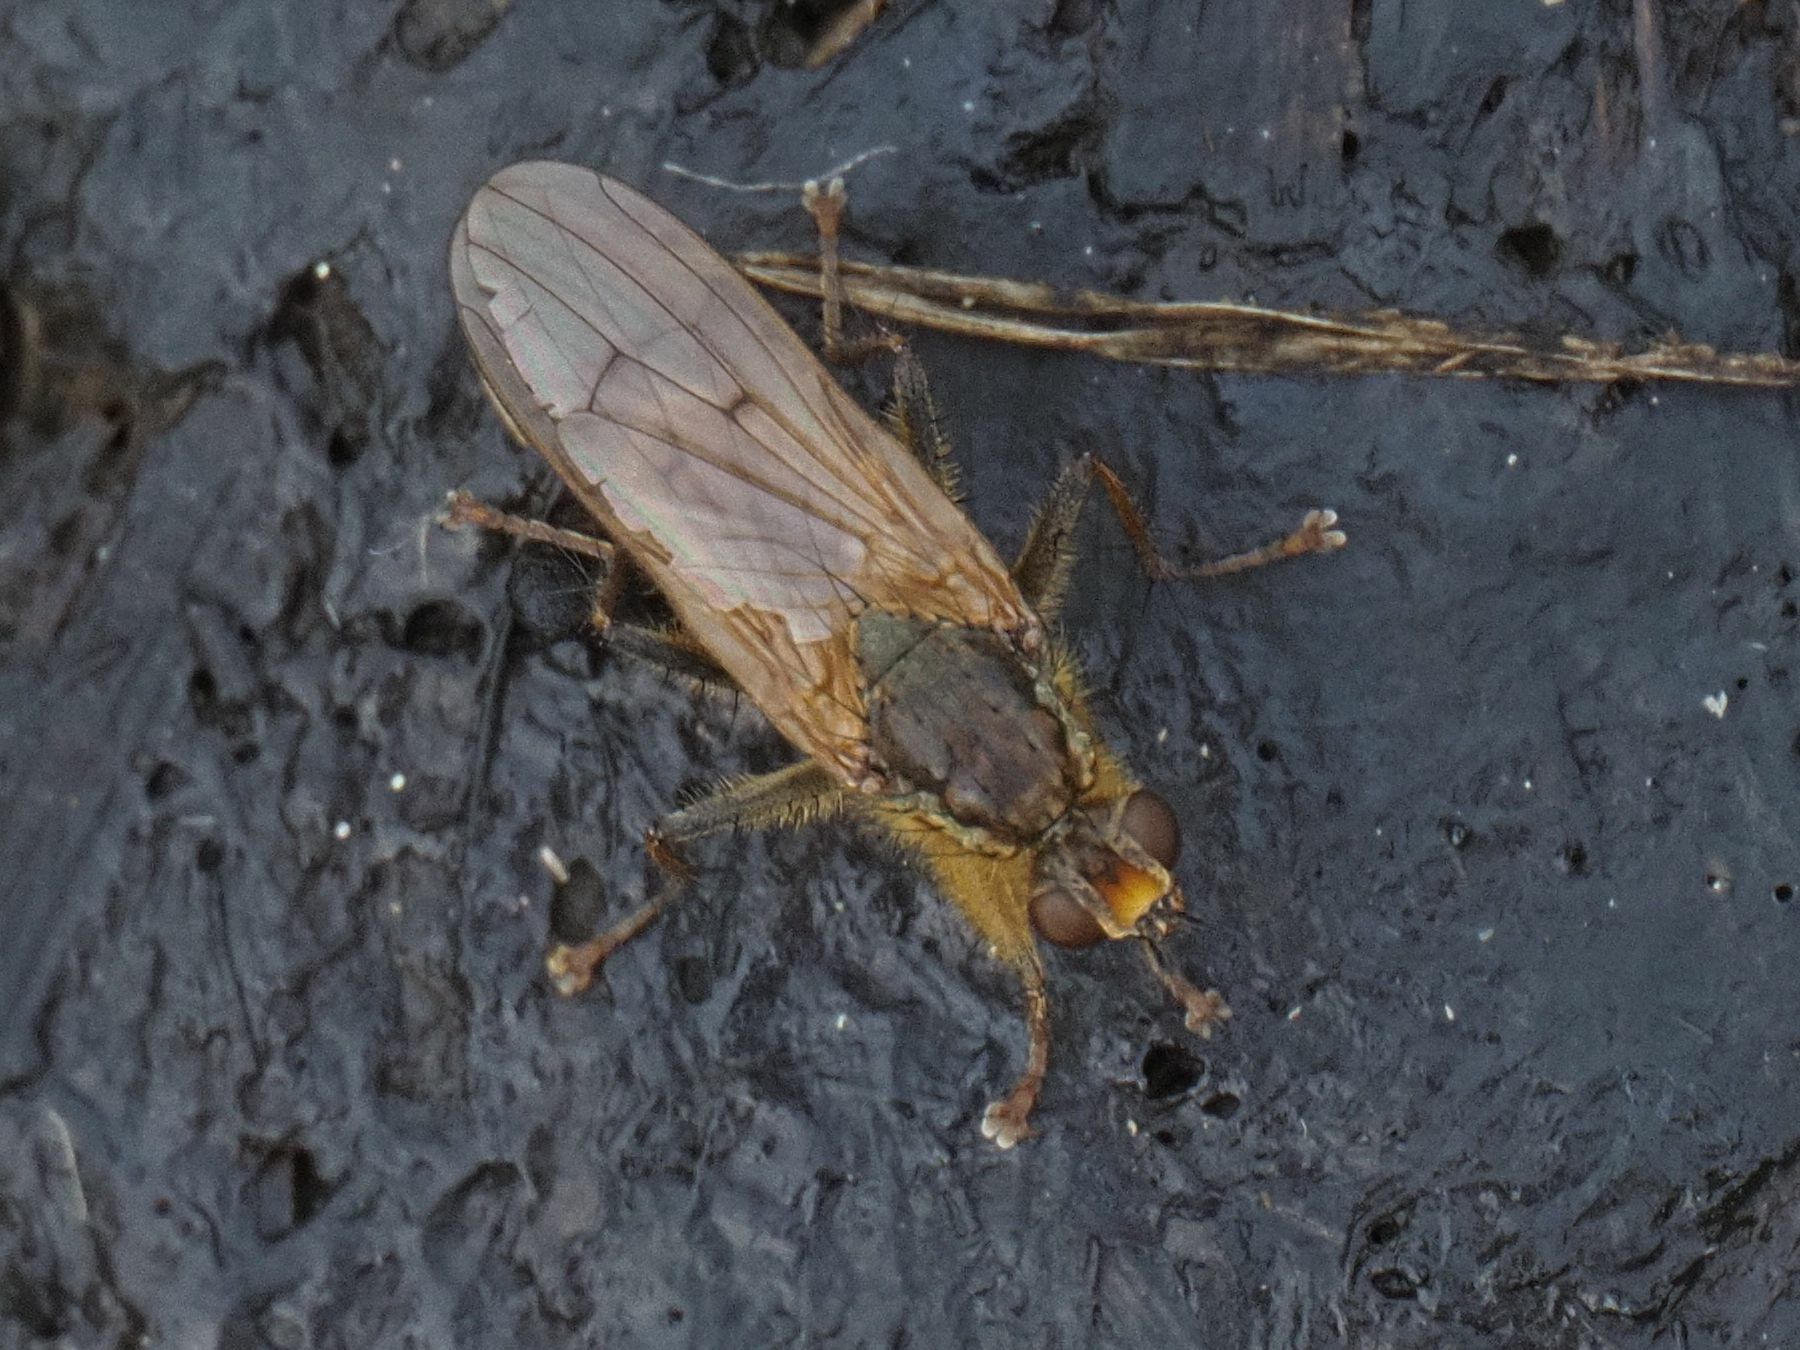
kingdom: Animalia
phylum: Arthropoda
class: Insecta
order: Diptera
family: Scathophagidae
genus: Scathophaga
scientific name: Scathophaga stercoraria
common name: Yellow dung fly
